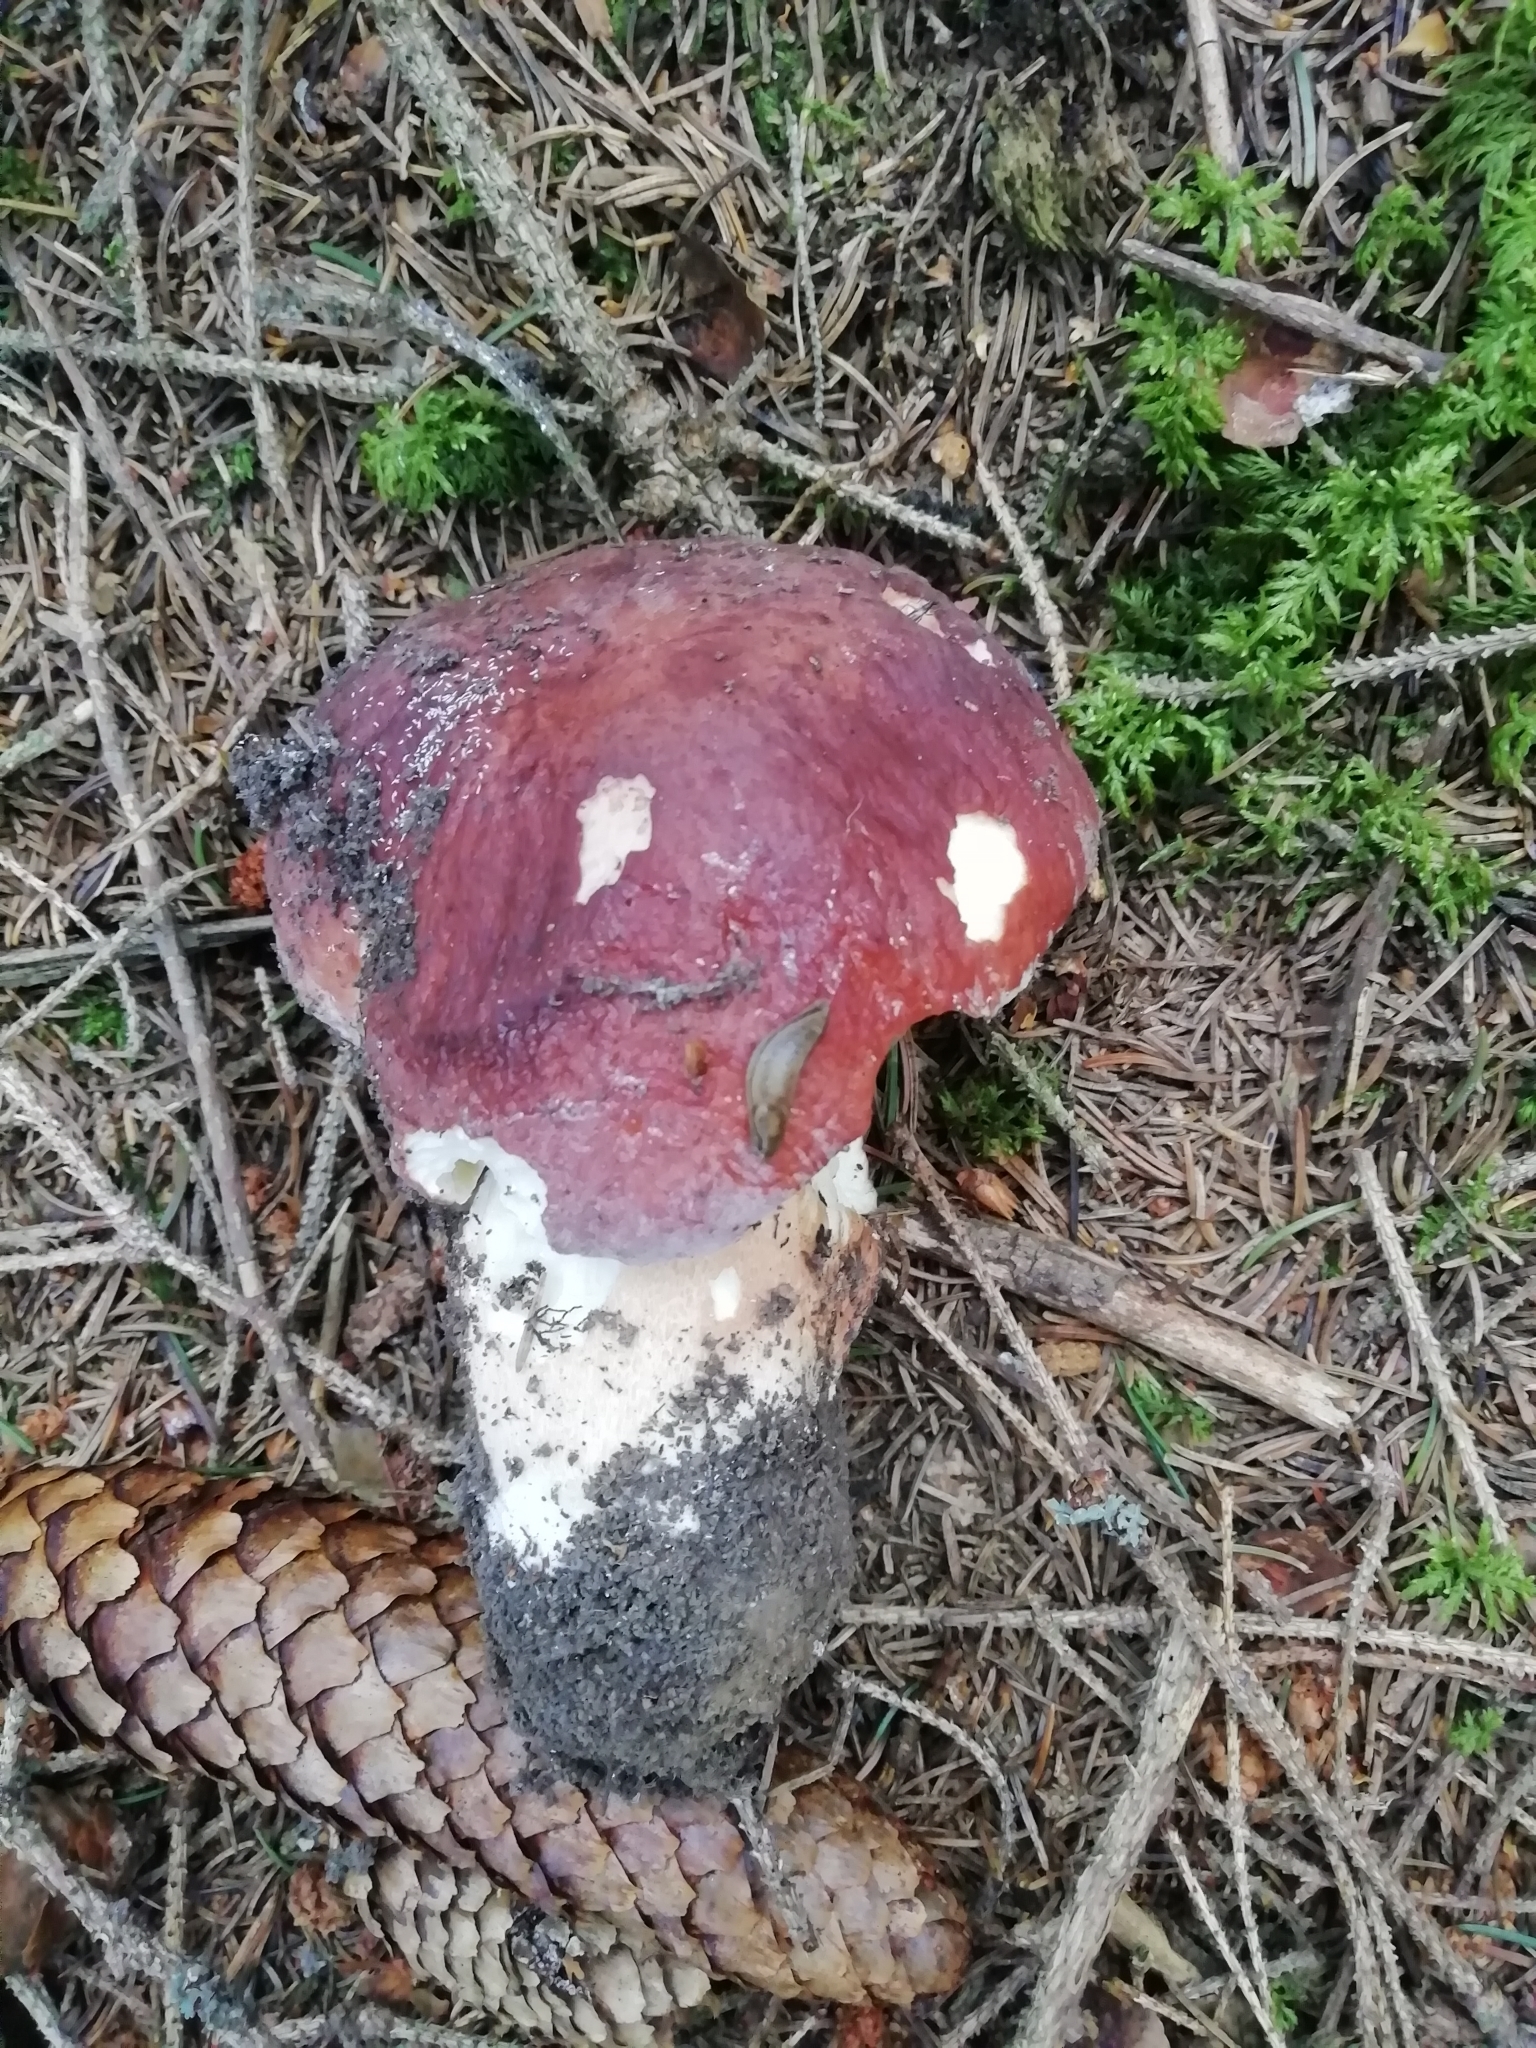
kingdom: Fungi
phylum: Basidiomycota
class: Agaricomycetes
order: Boletales
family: Boletaceae
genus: Boletus
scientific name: Boletus pinophilus
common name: Pine bolete
